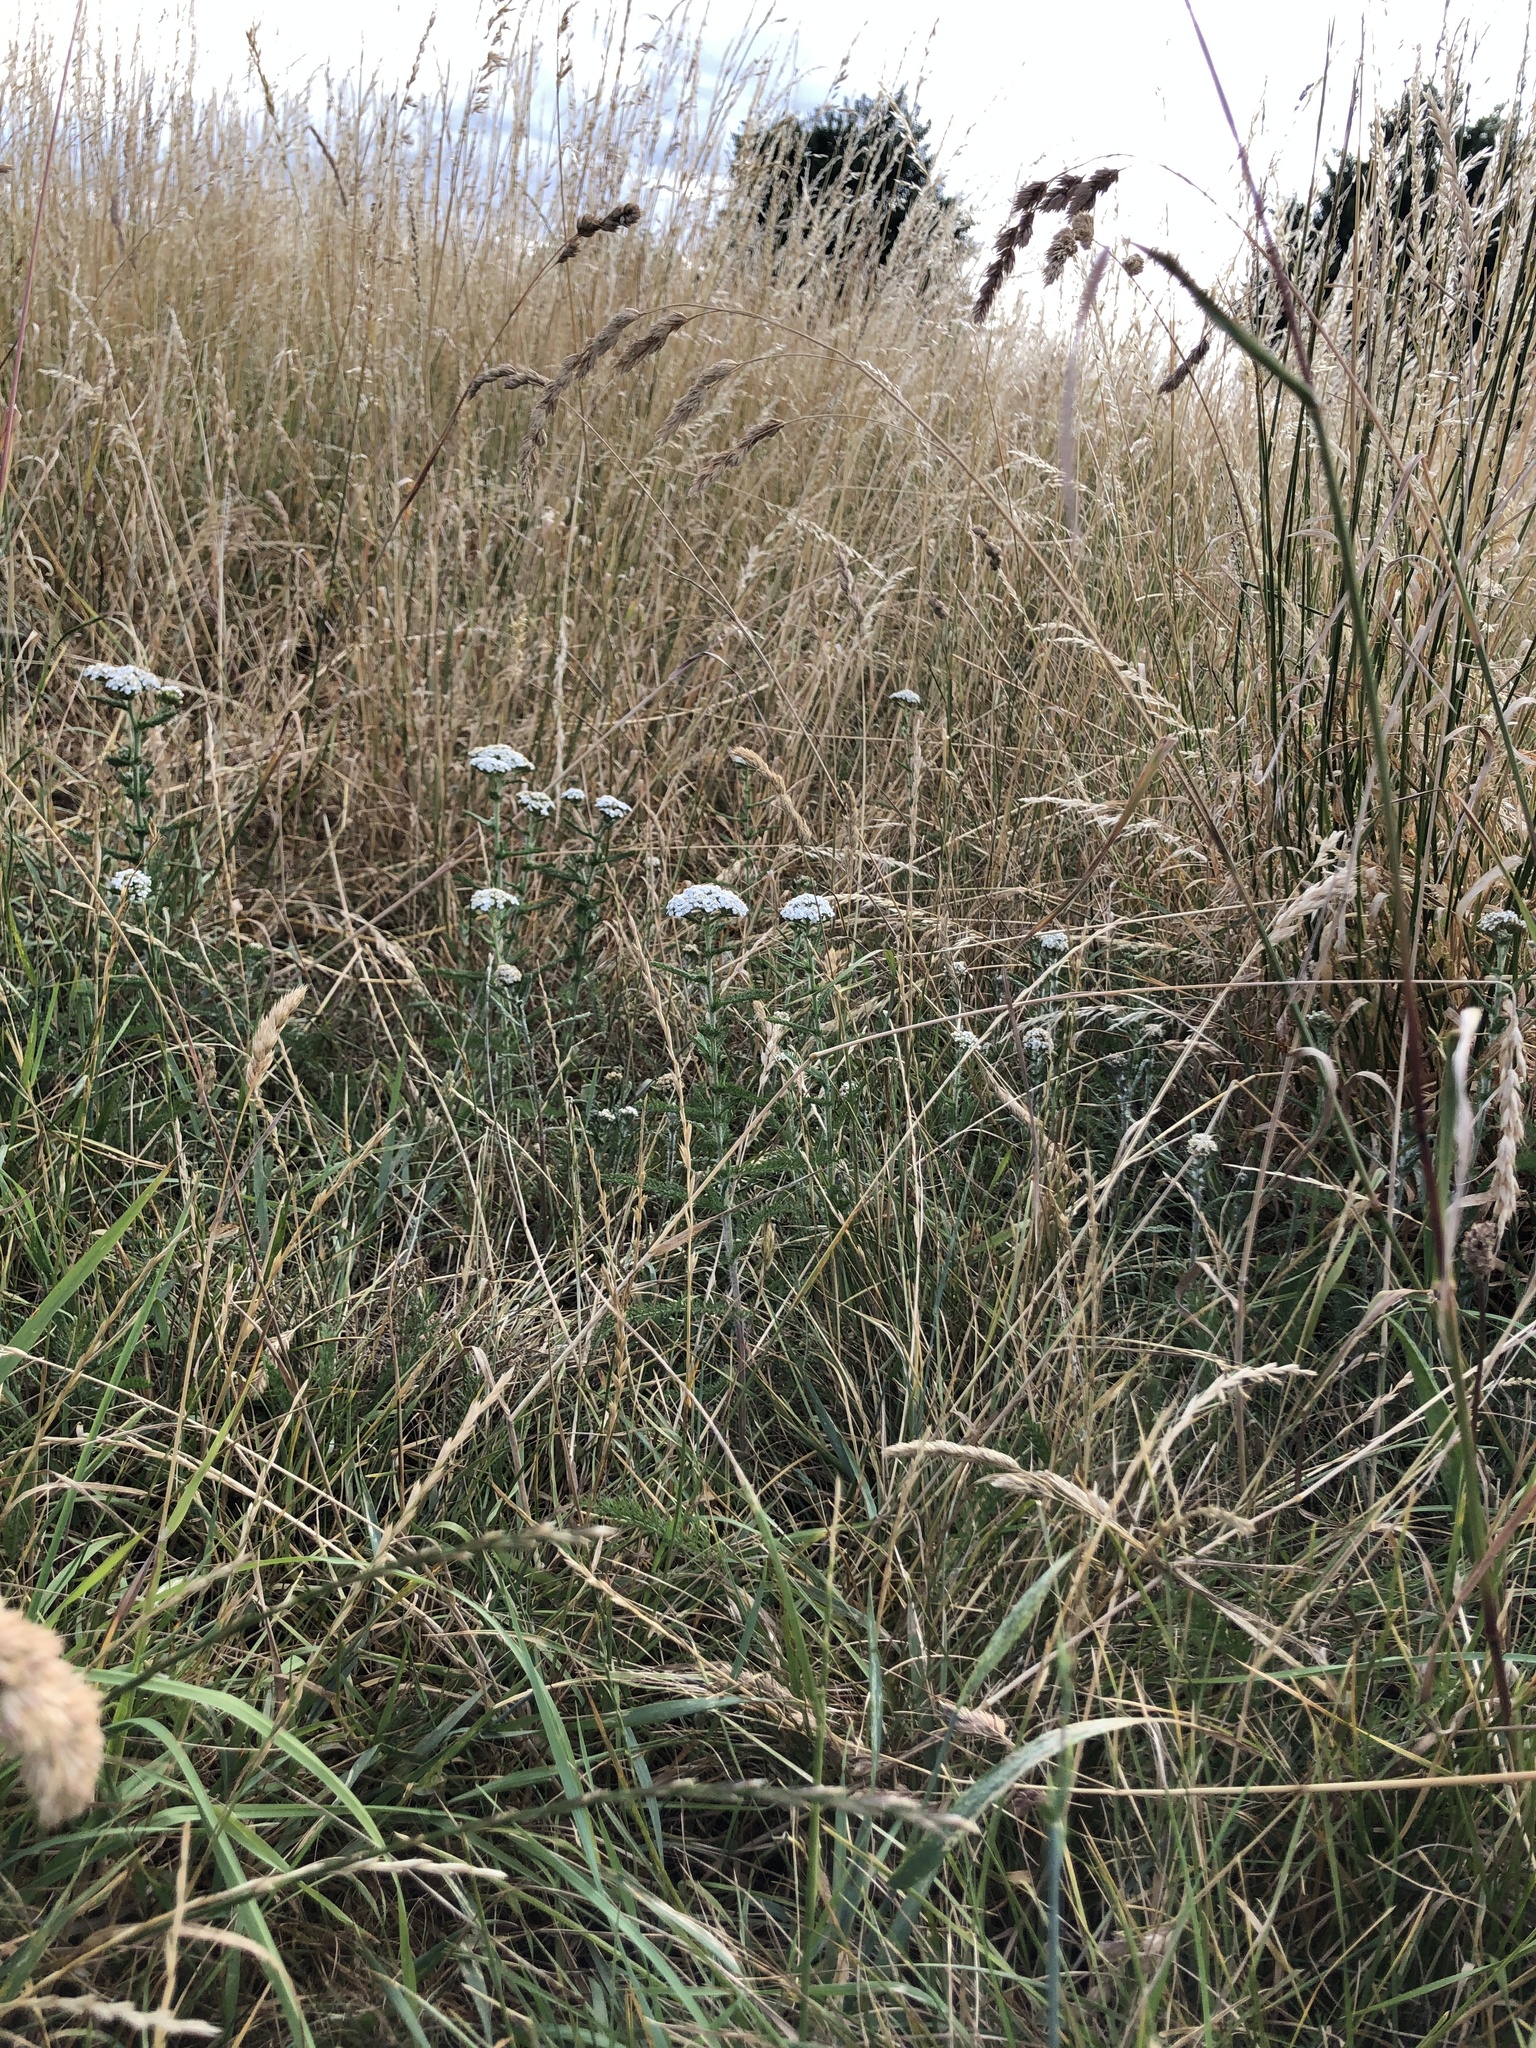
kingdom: Plantae
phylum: Tracheophyta
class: Magnoliopsida
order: Asterales
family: Asteraceae
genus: Achillea
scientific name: Achillea millefolium
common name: Yarrow
